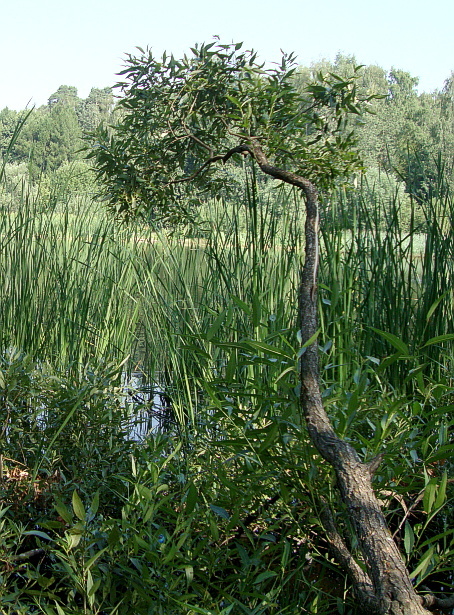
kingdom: Plantae
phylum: Tracheophyta
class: Magnoliopsida
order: Malpighiales
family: Salicaceae
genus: Salix
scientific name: Salix alba
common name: White willow
